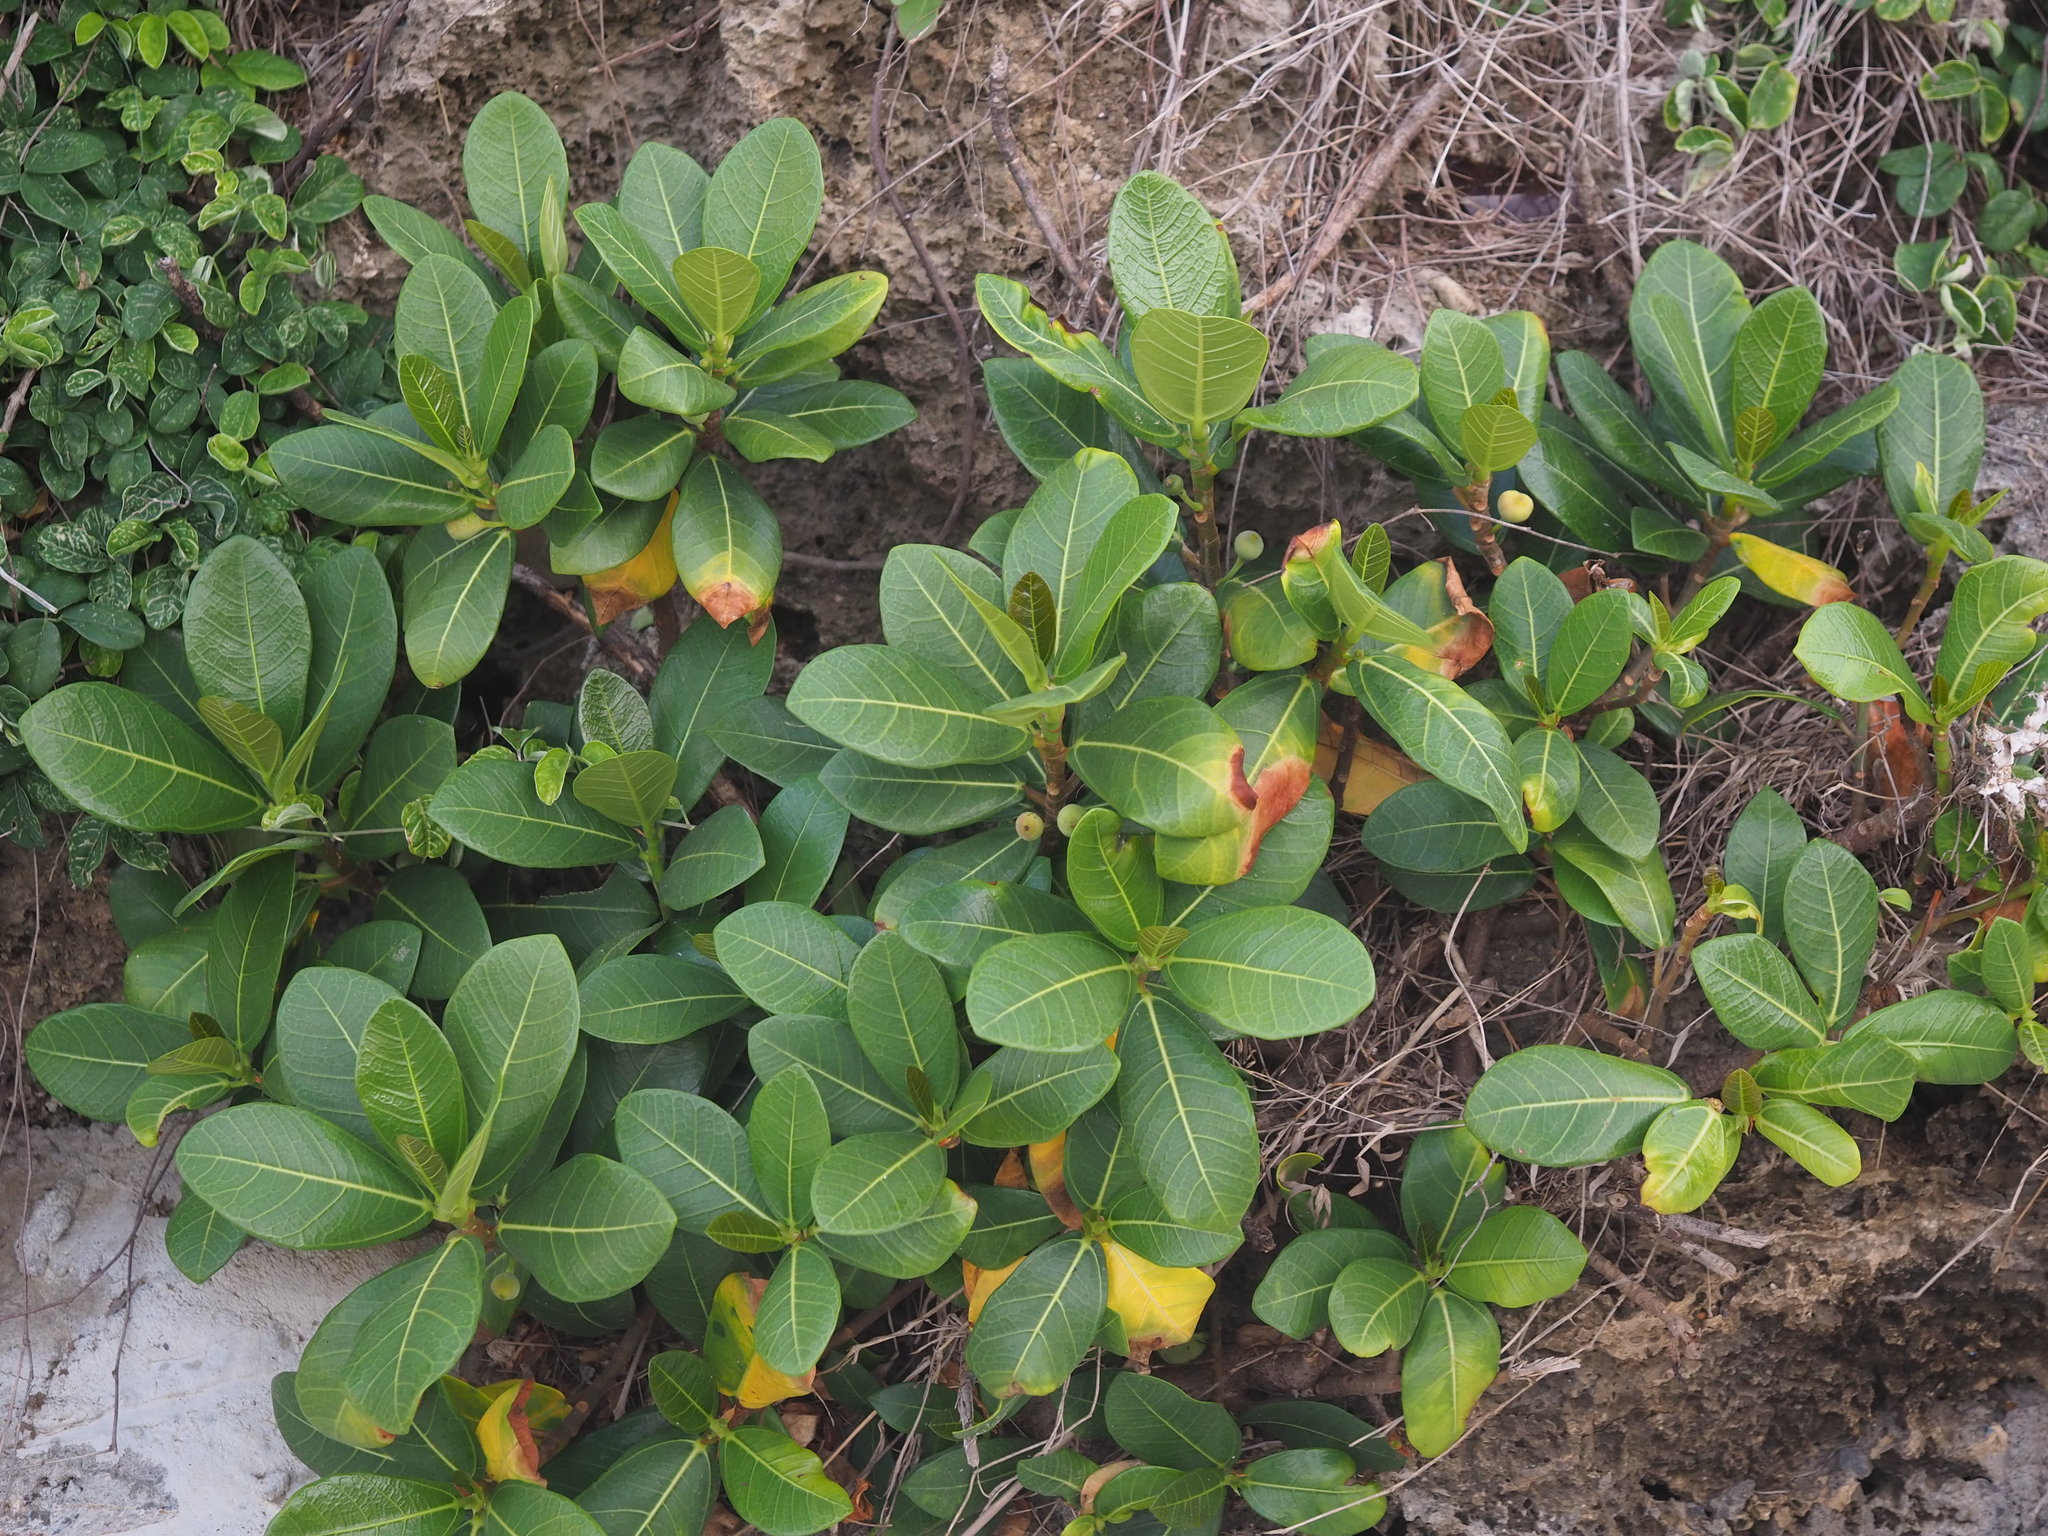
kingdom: Plantae
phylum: Tracheophyta
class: Magnoliopsida
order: Rosales
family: Moraceae
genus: Ficus
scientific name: Ficus pedunculosa
